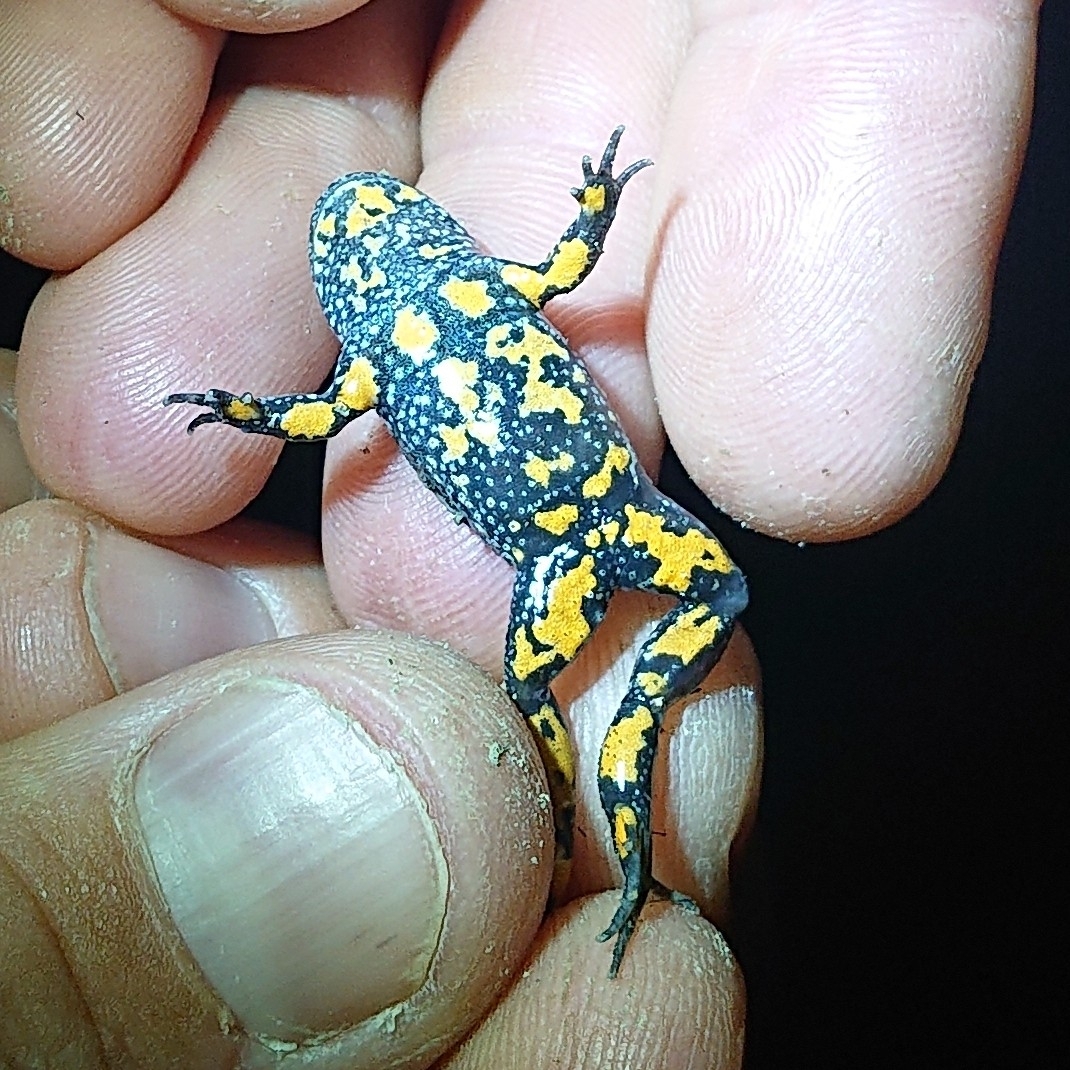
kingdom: Animalia
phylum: Chordata
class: Amphibia
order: Anura
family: Bombinatoridae
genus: Bombina
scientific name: Bombina bombina
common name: Fire-bellied toad
